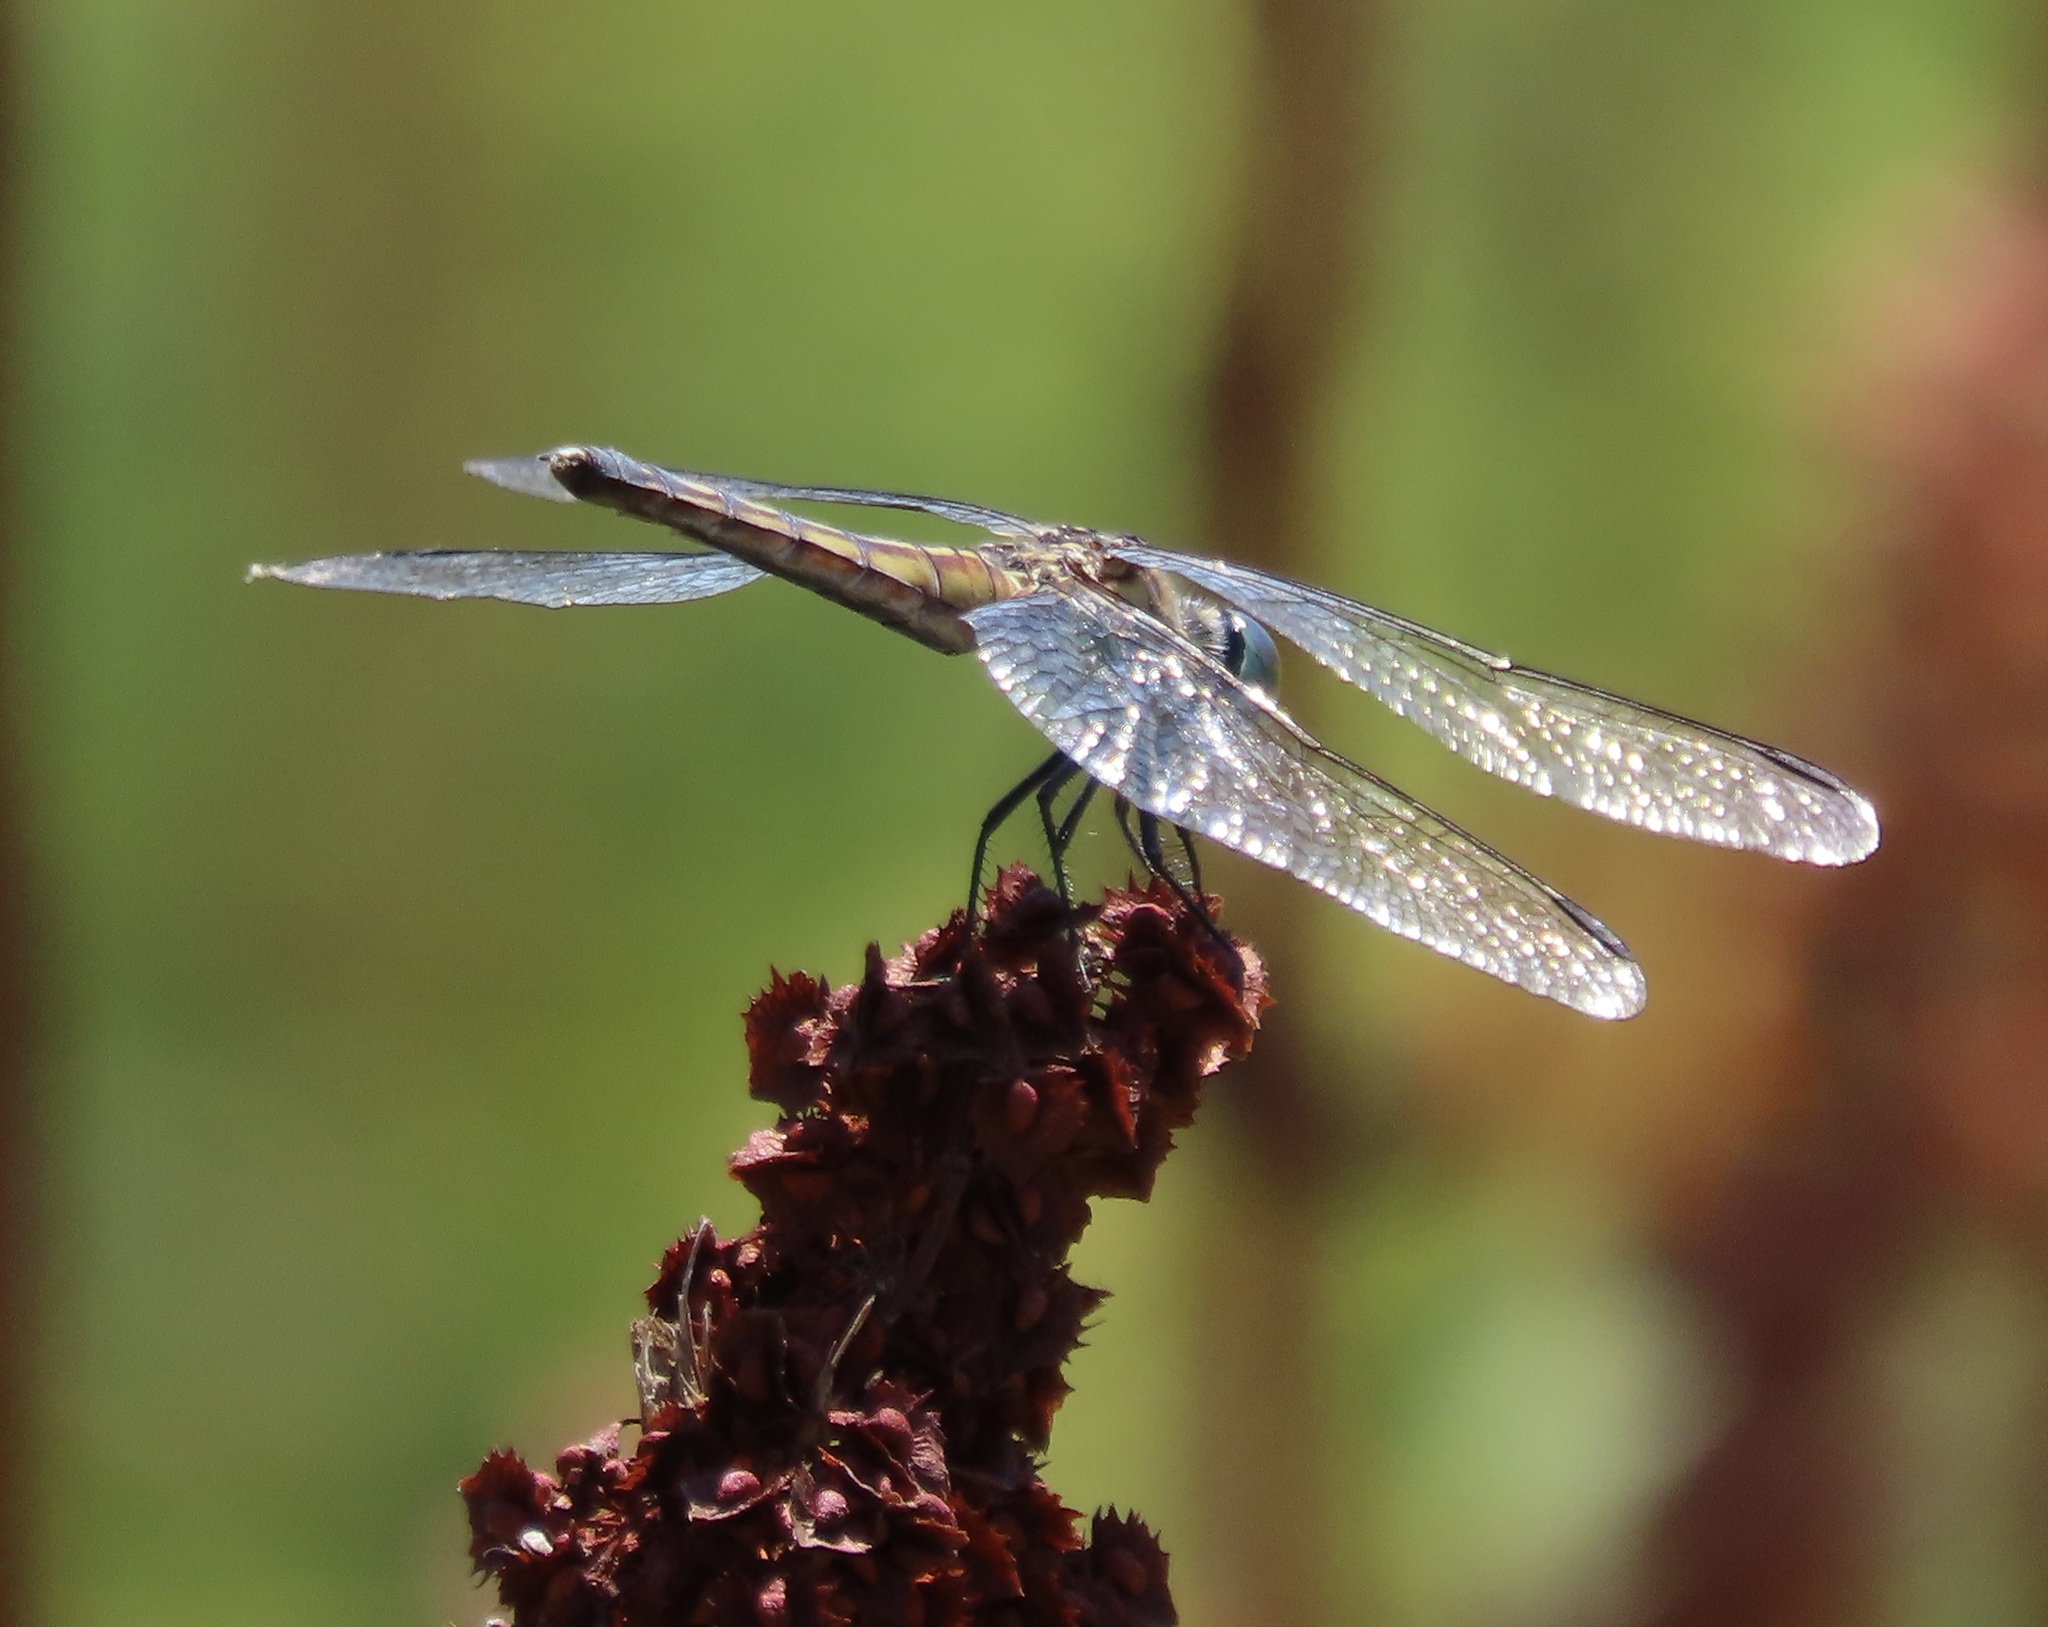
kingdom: Animalia
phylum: Arthropoda
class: Insecta
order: Odonata
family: Libellulidae
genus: Pachydiplax
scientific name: Pachydiplax longipennis
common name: Blue dasher
